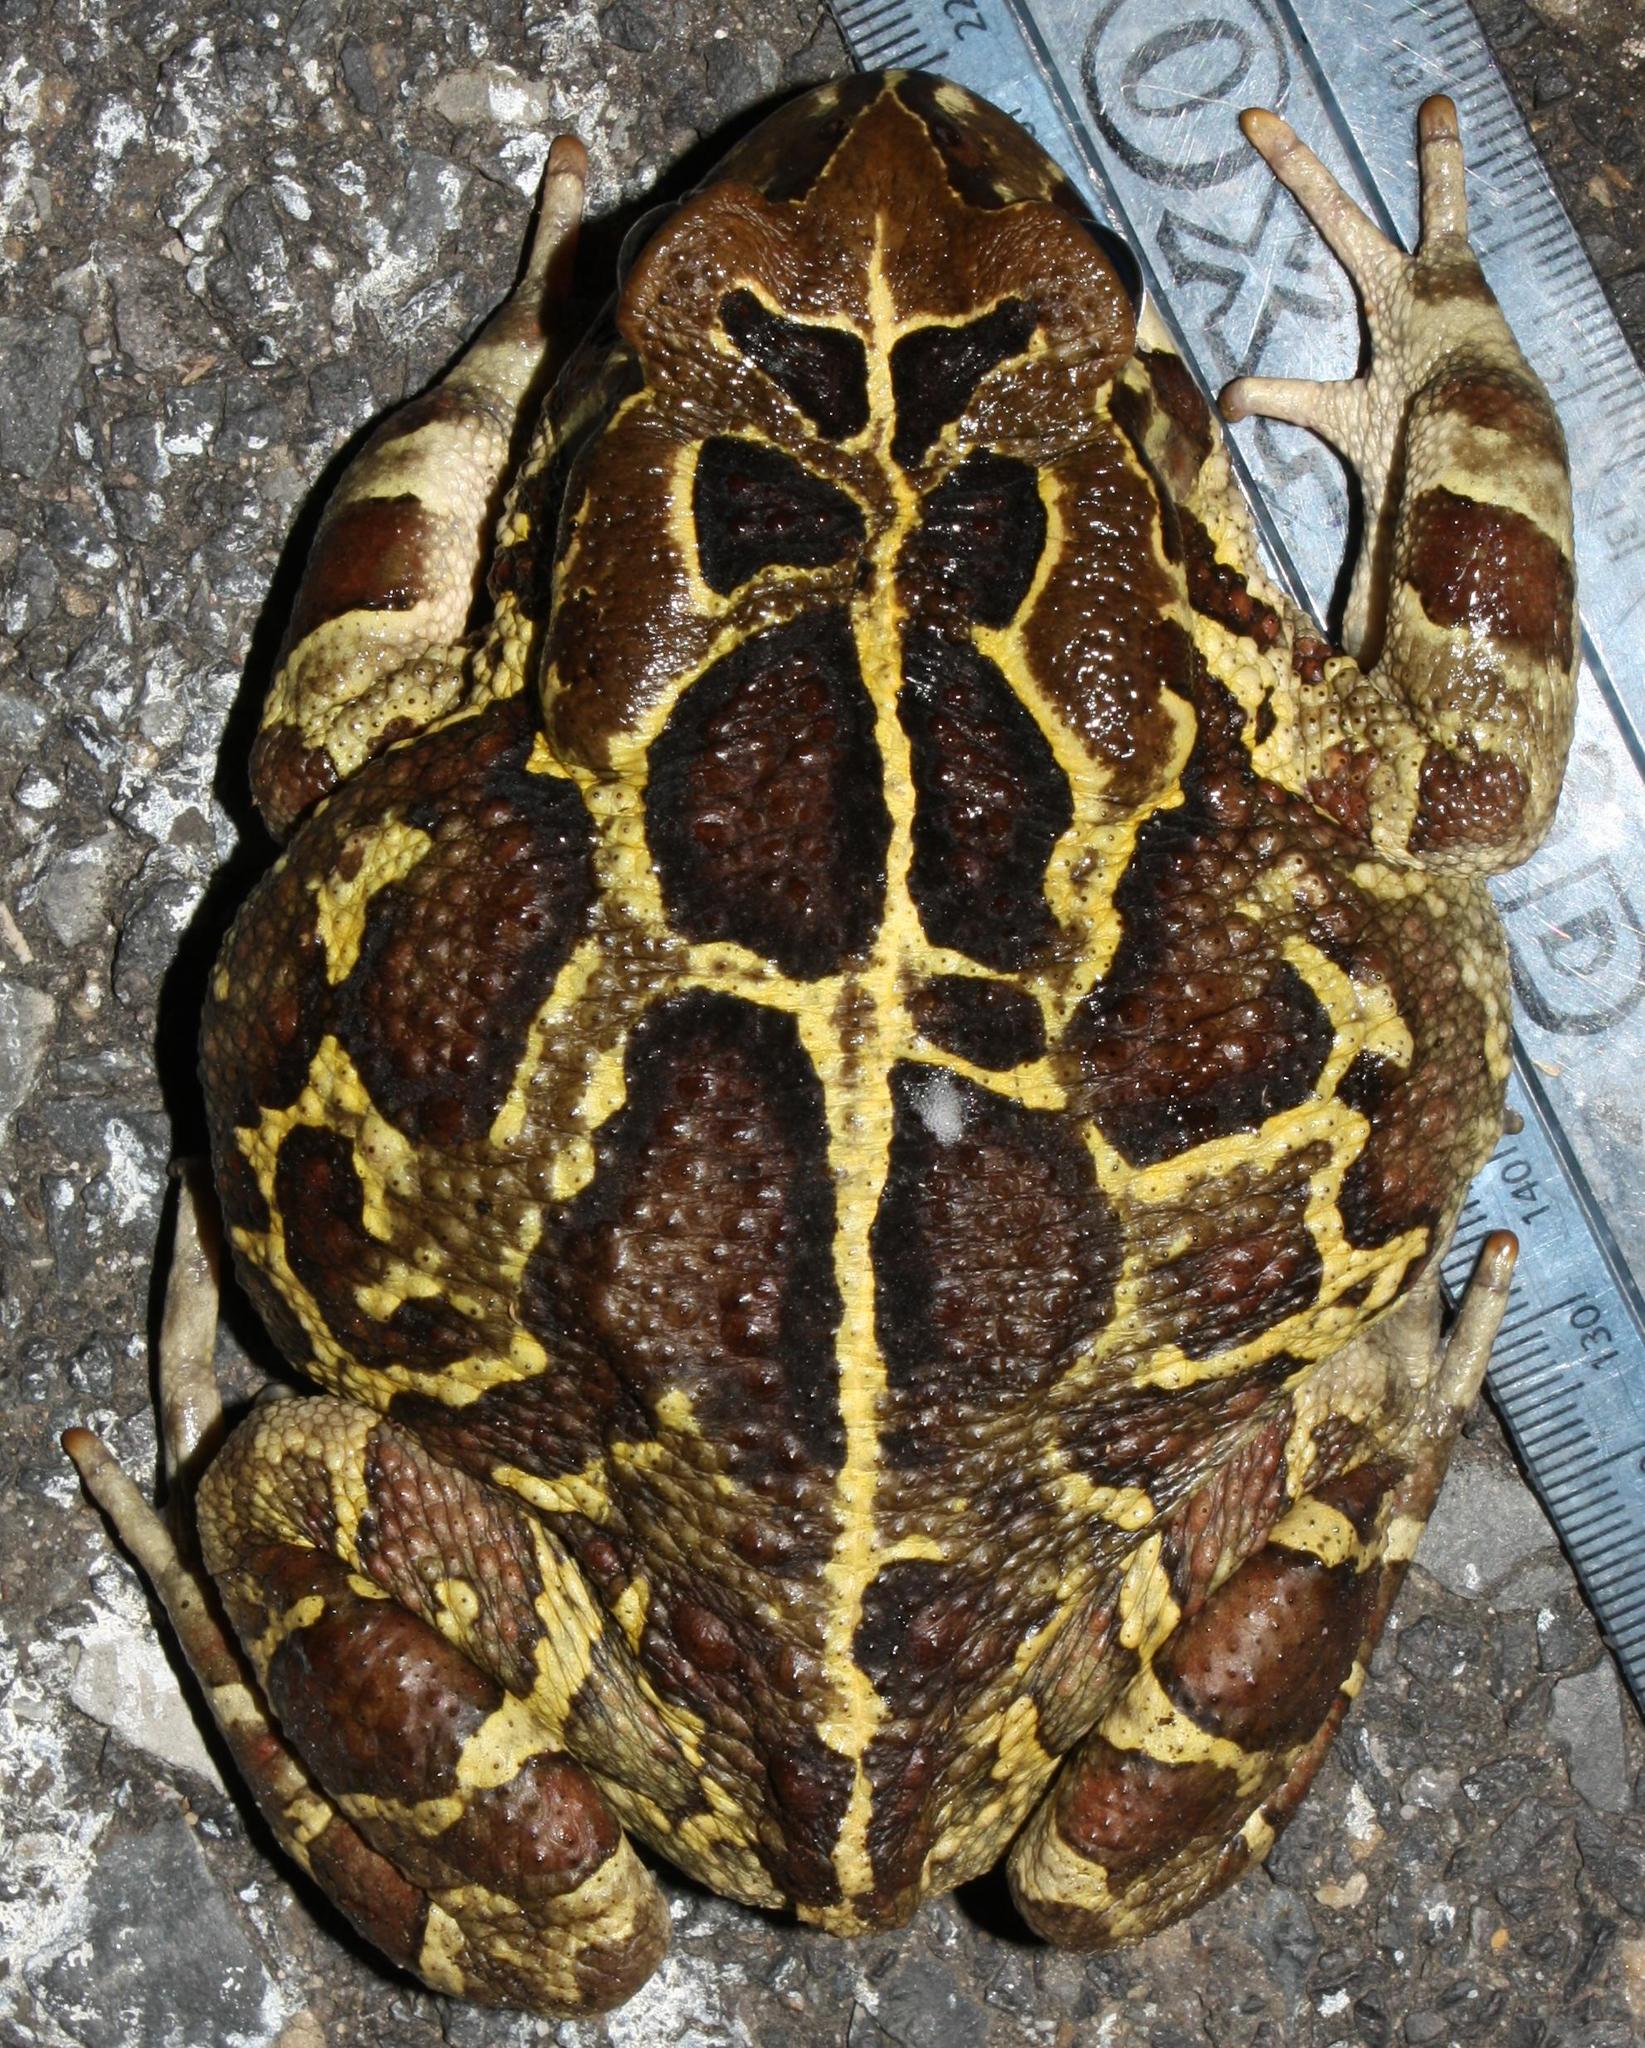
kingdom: Animalia
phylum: Chordata
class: Amphibia
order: Anura
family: Bufonidae
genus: Sclerophrys
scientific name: Sclerophrys pantherina
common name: Panther toad
